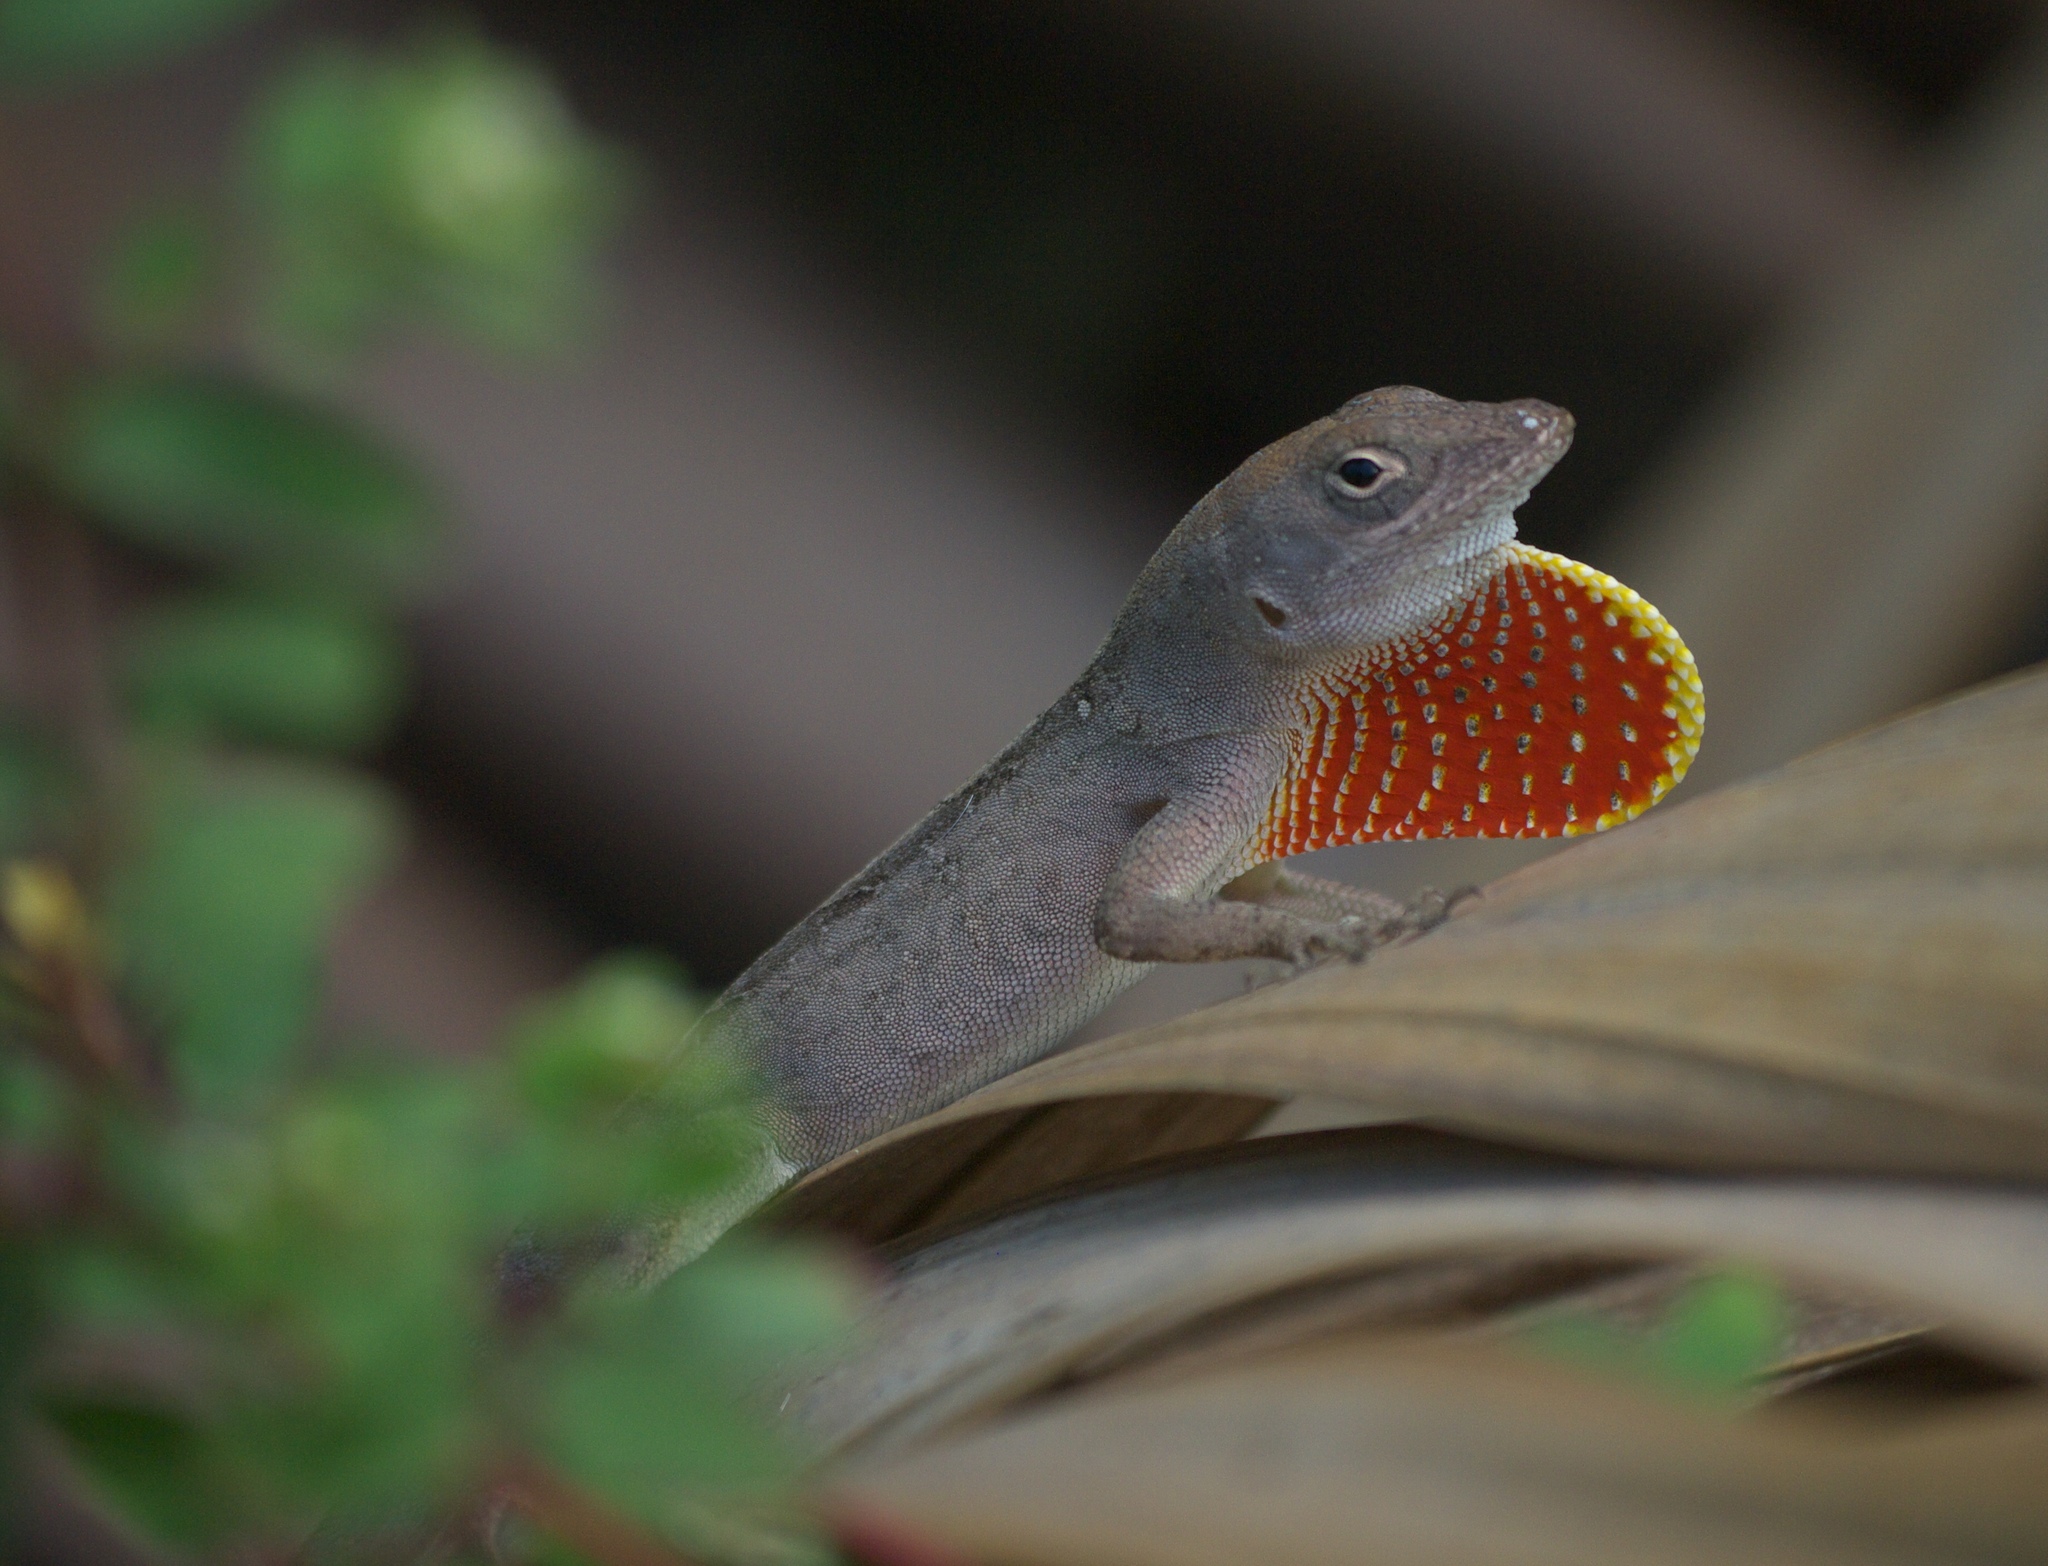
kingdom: Animalia
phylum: Chordata
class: Squamata
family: Dactyloidae
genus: Anolis
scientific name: Anolis sagrei
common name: Brown anole
